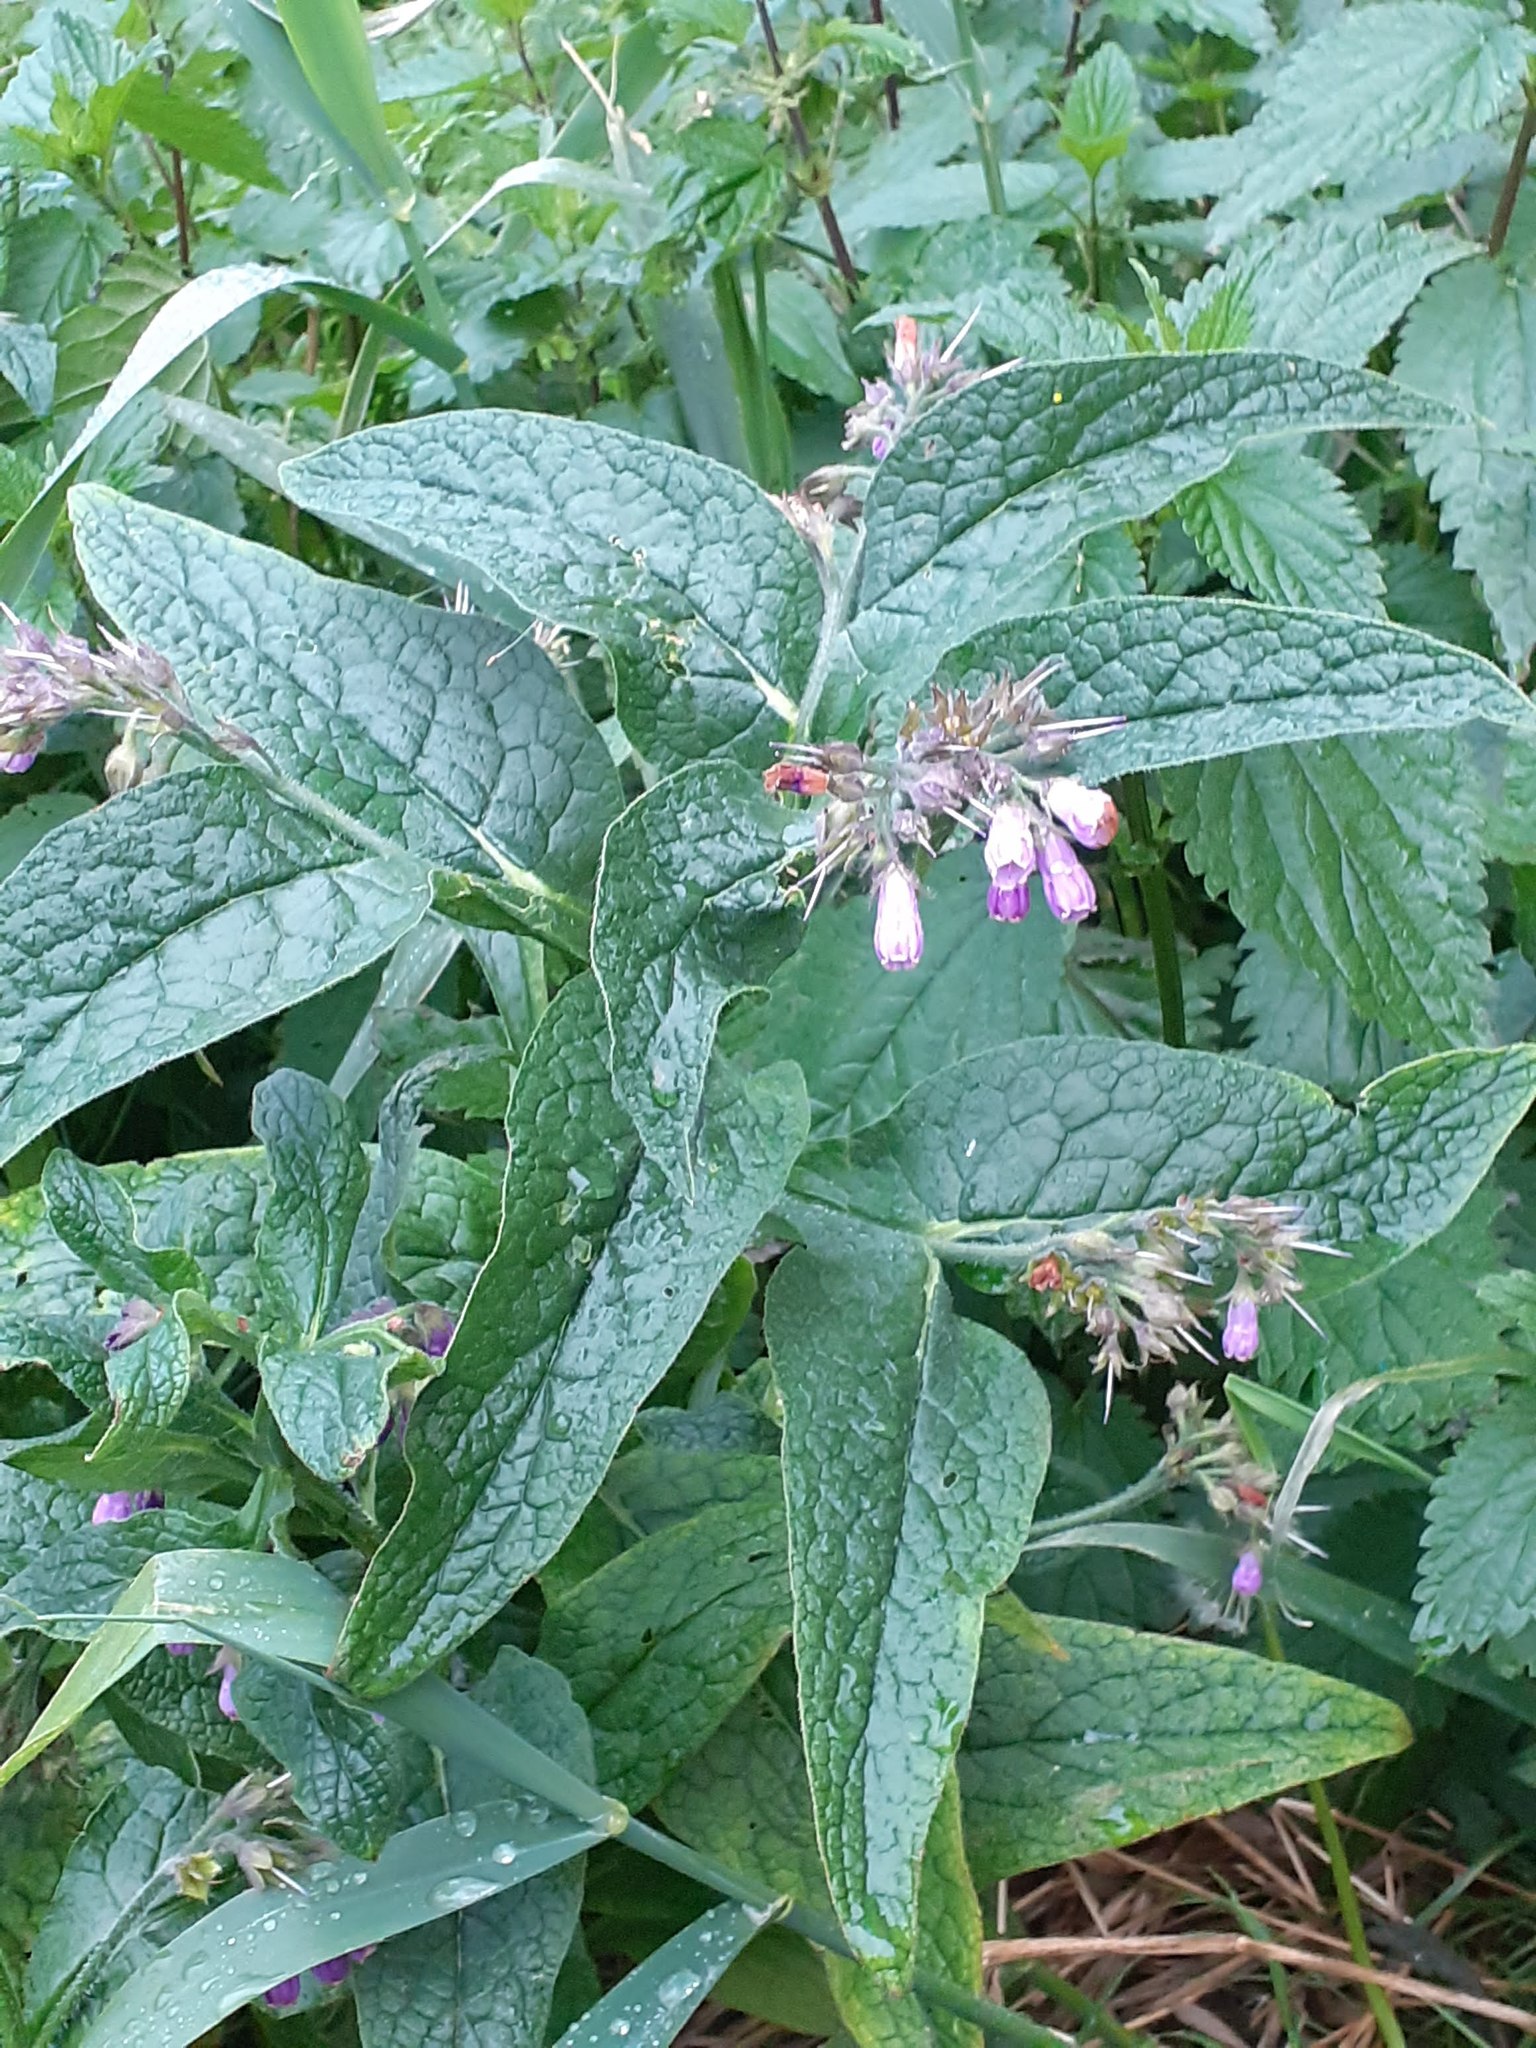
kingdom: Plantae
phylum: Tracheophyta
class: Magnoliopsida
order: Boraginales
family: Boraginaceae
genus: Symphytum
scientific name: Symphytum officinale
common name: Common comfrey
